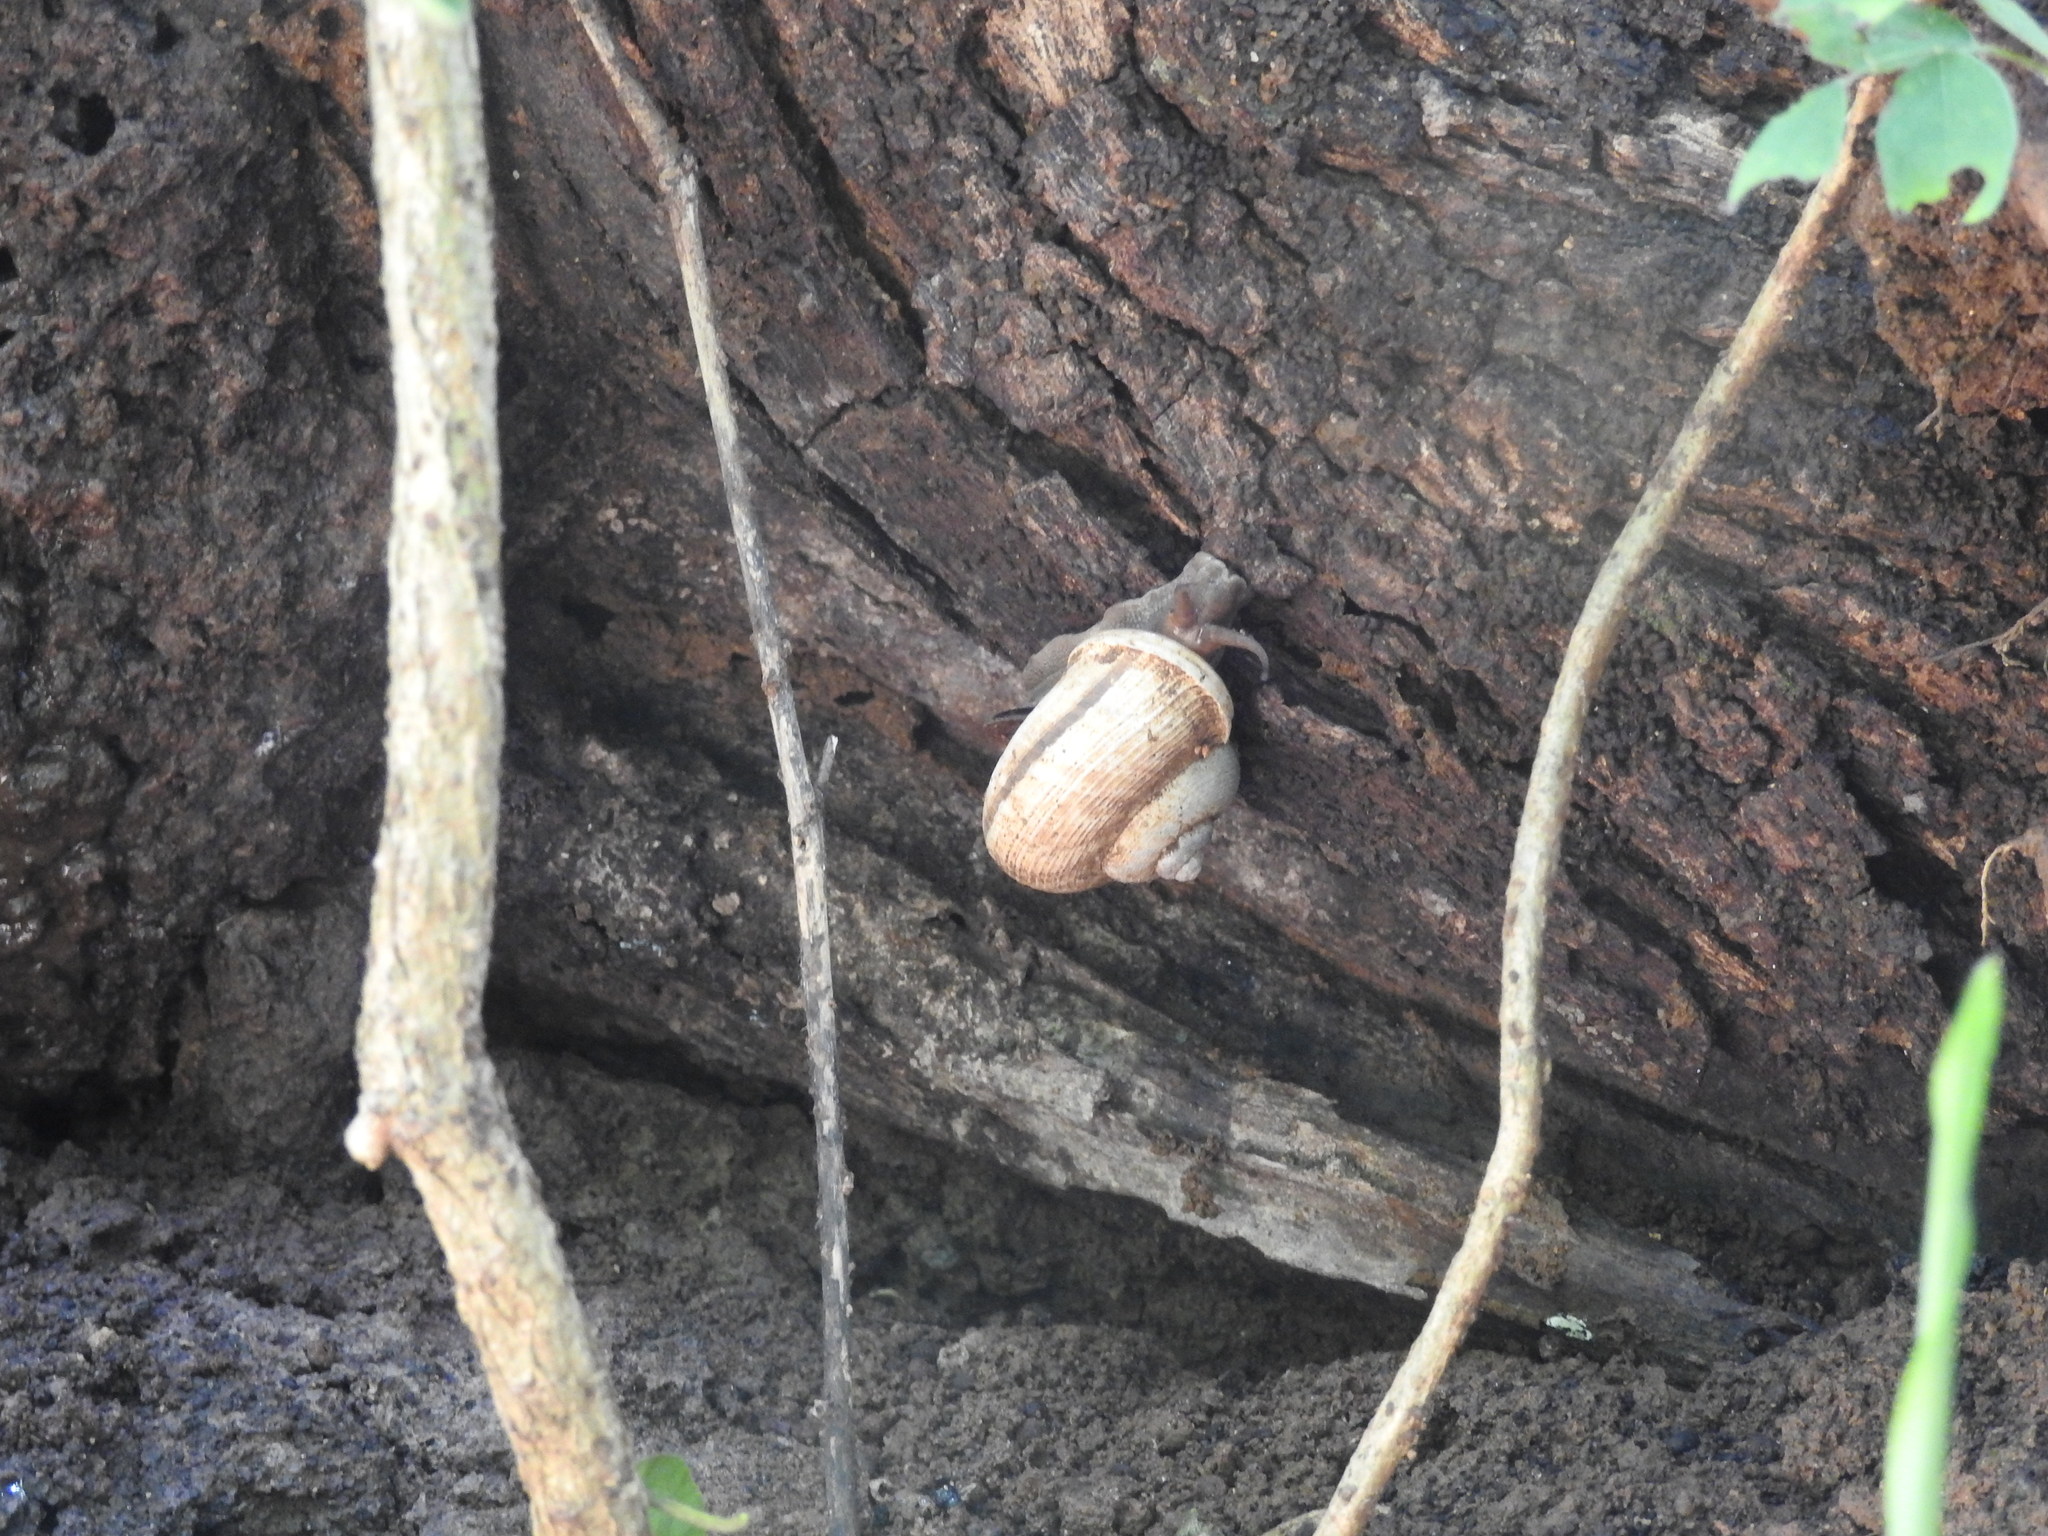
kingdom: Animalia
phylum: Mollusca
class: Gastropoda
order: Architaenioglossa
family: Cyclophoridae
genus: Cyclophorus
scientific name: Cyclophorus polynema
